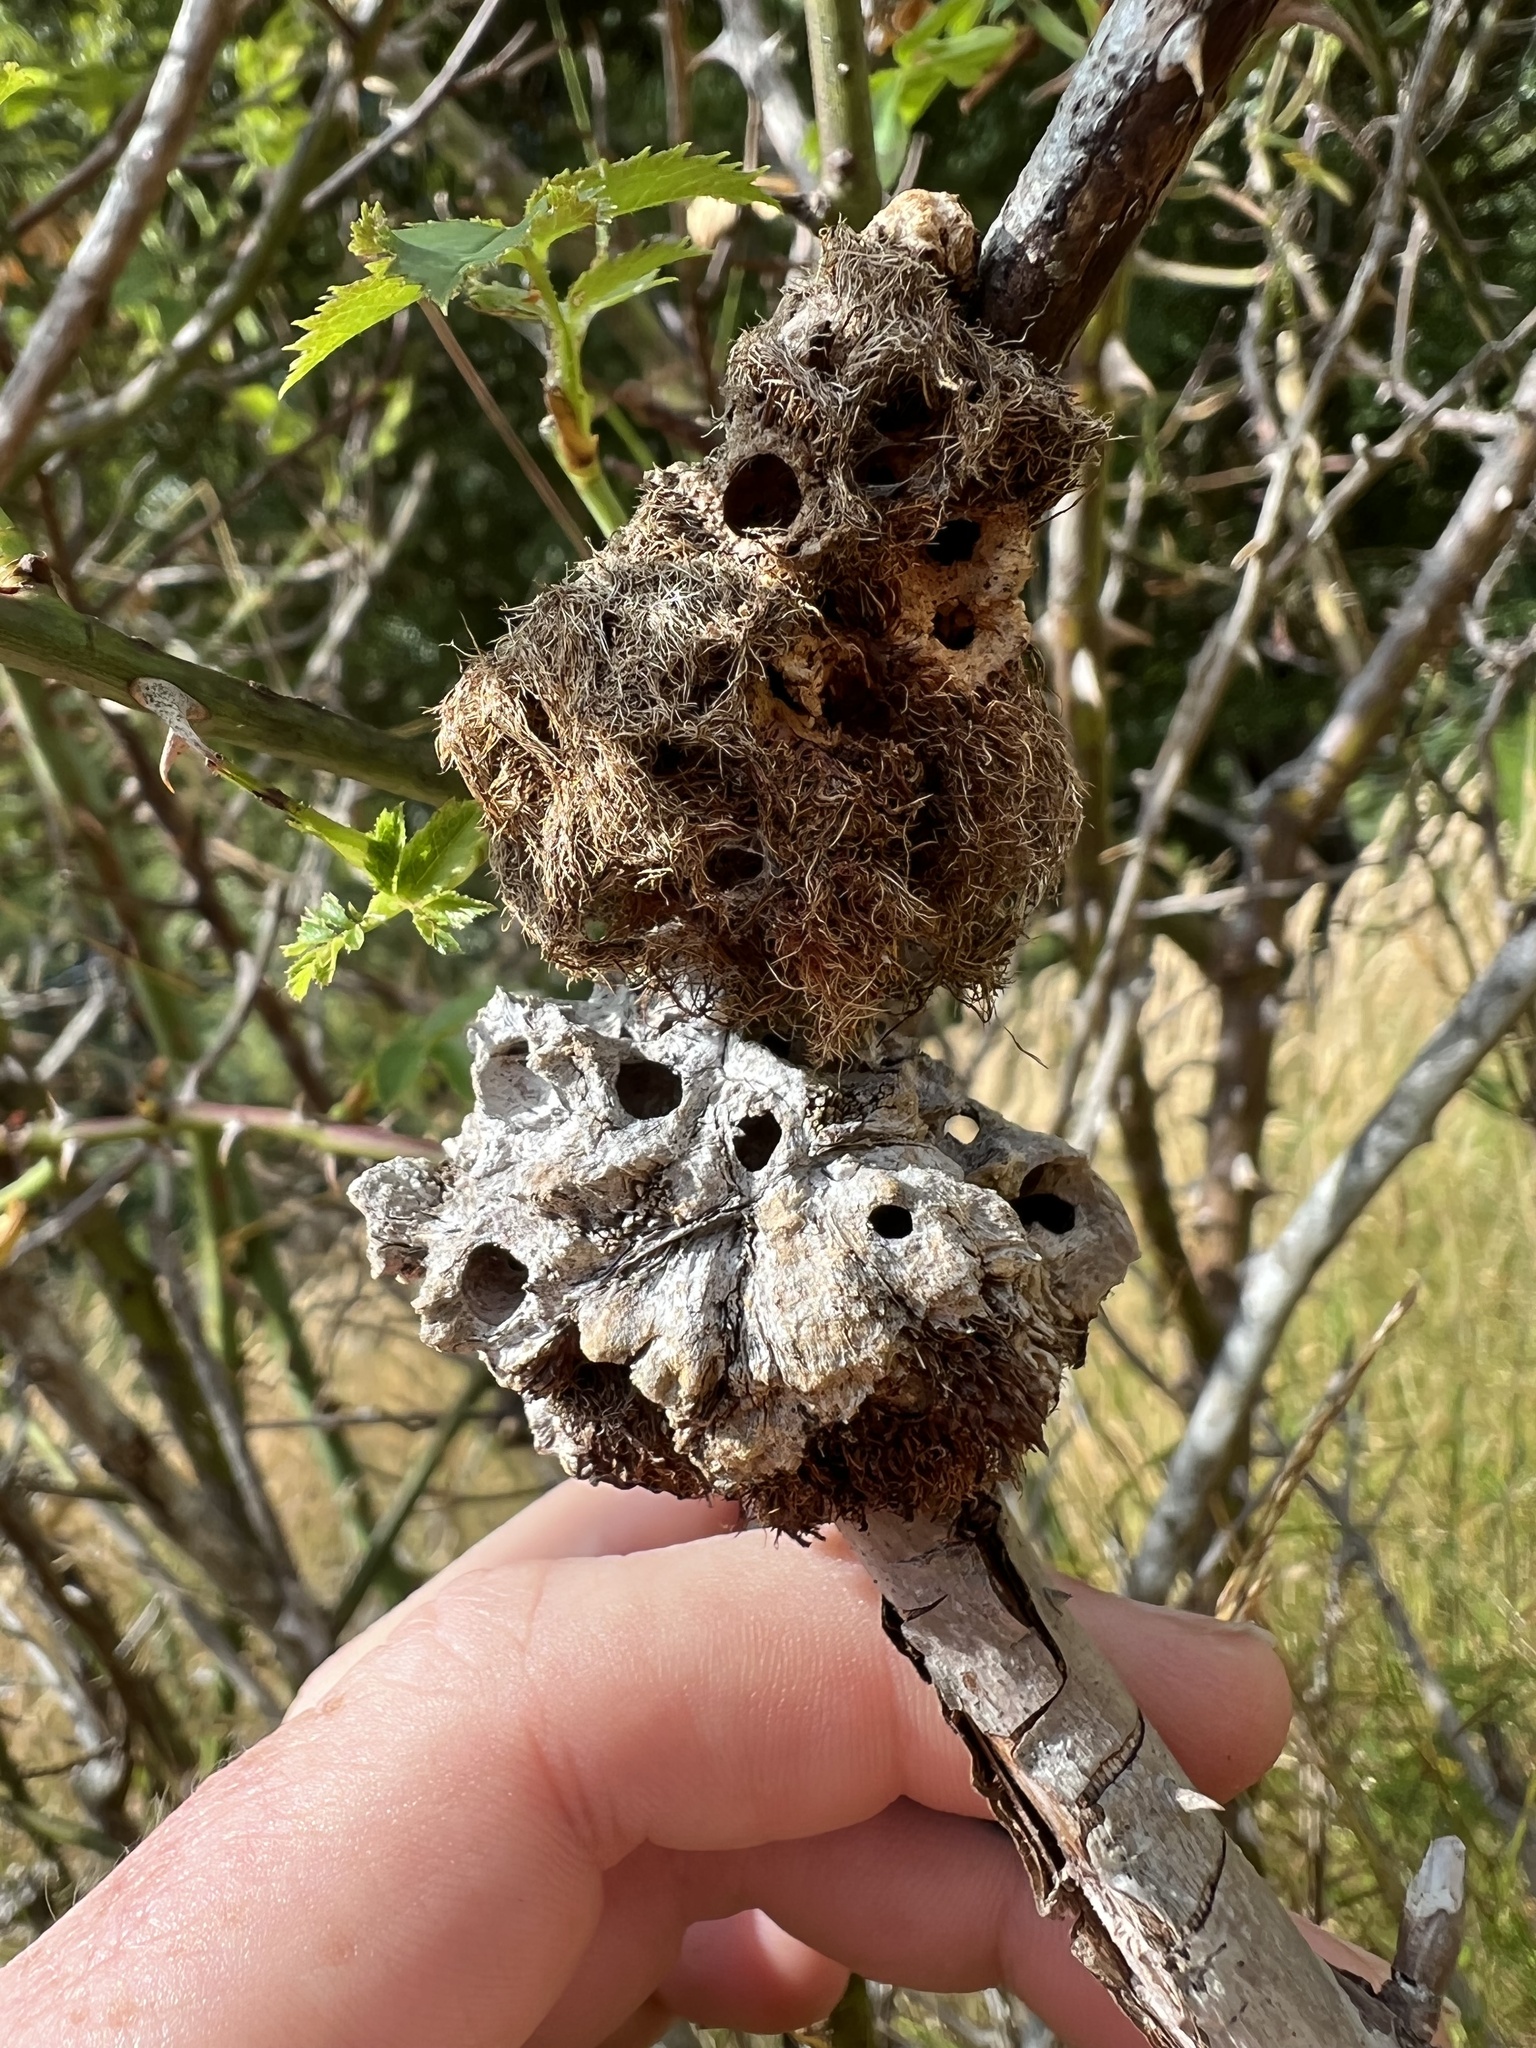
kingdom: Animalia
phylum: Arthropoda
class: Insecta
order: Hymenoptera
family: Cynipidae
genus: Diplolepis
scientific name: Diplolepis rosae
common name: Bedeguar gall
